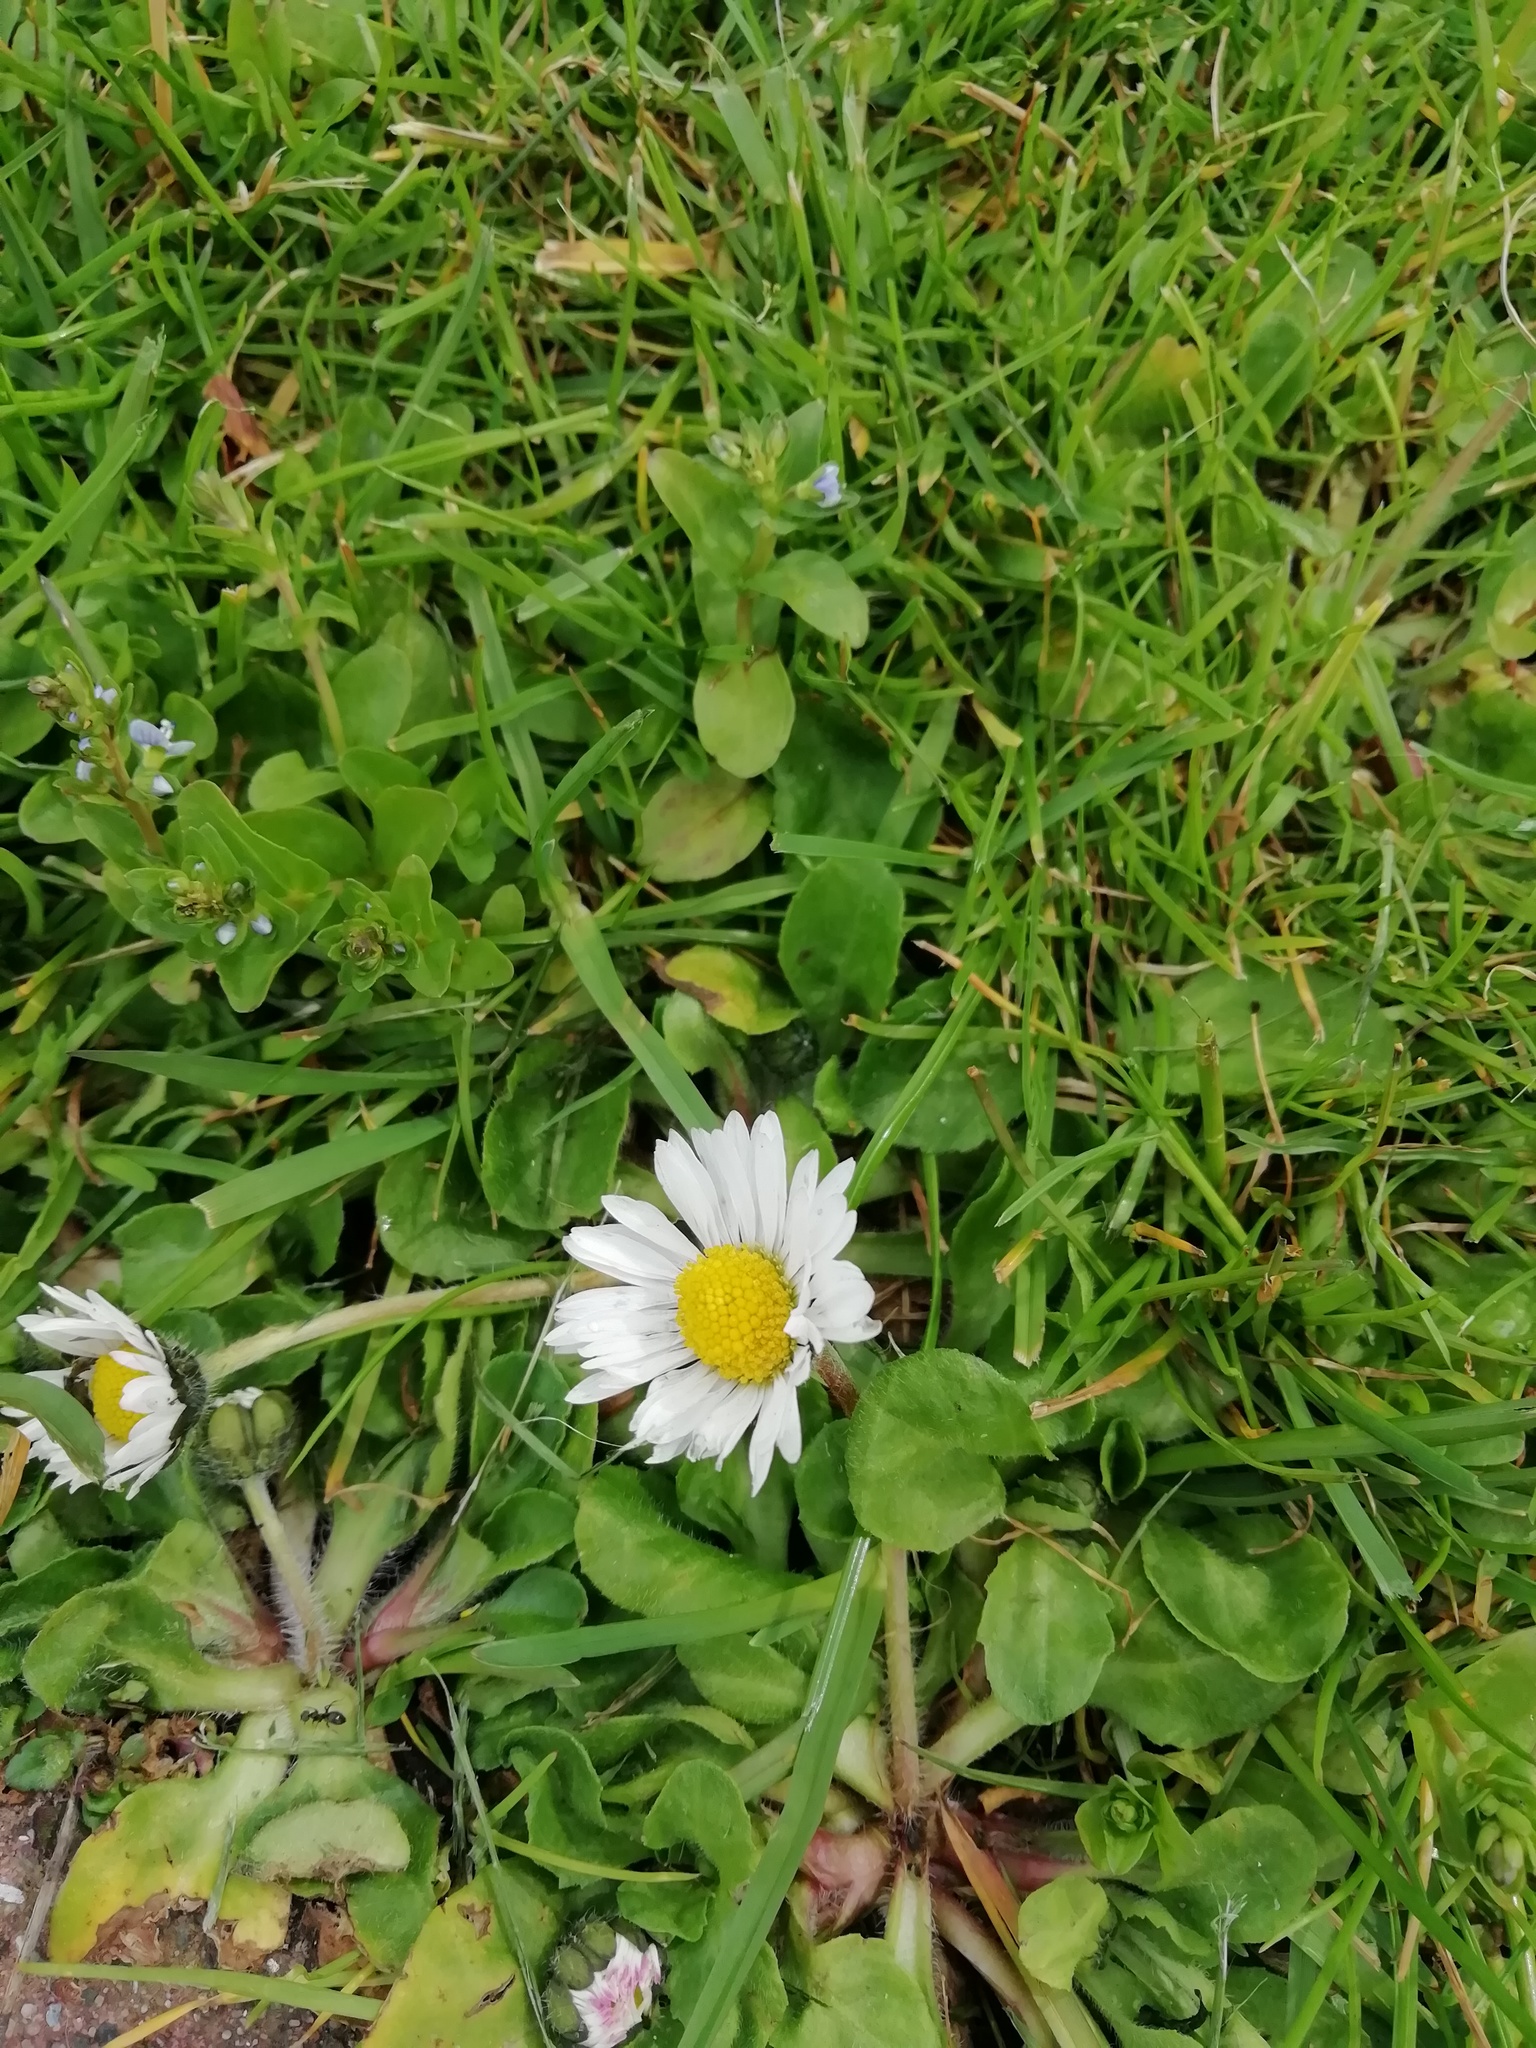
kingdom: Plantae
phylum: Tracheophyta
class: Magnoliopsida
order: Asterales
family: Asteraceae
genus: Bellis
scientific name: Bellis perennis
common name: Lawndaisy
